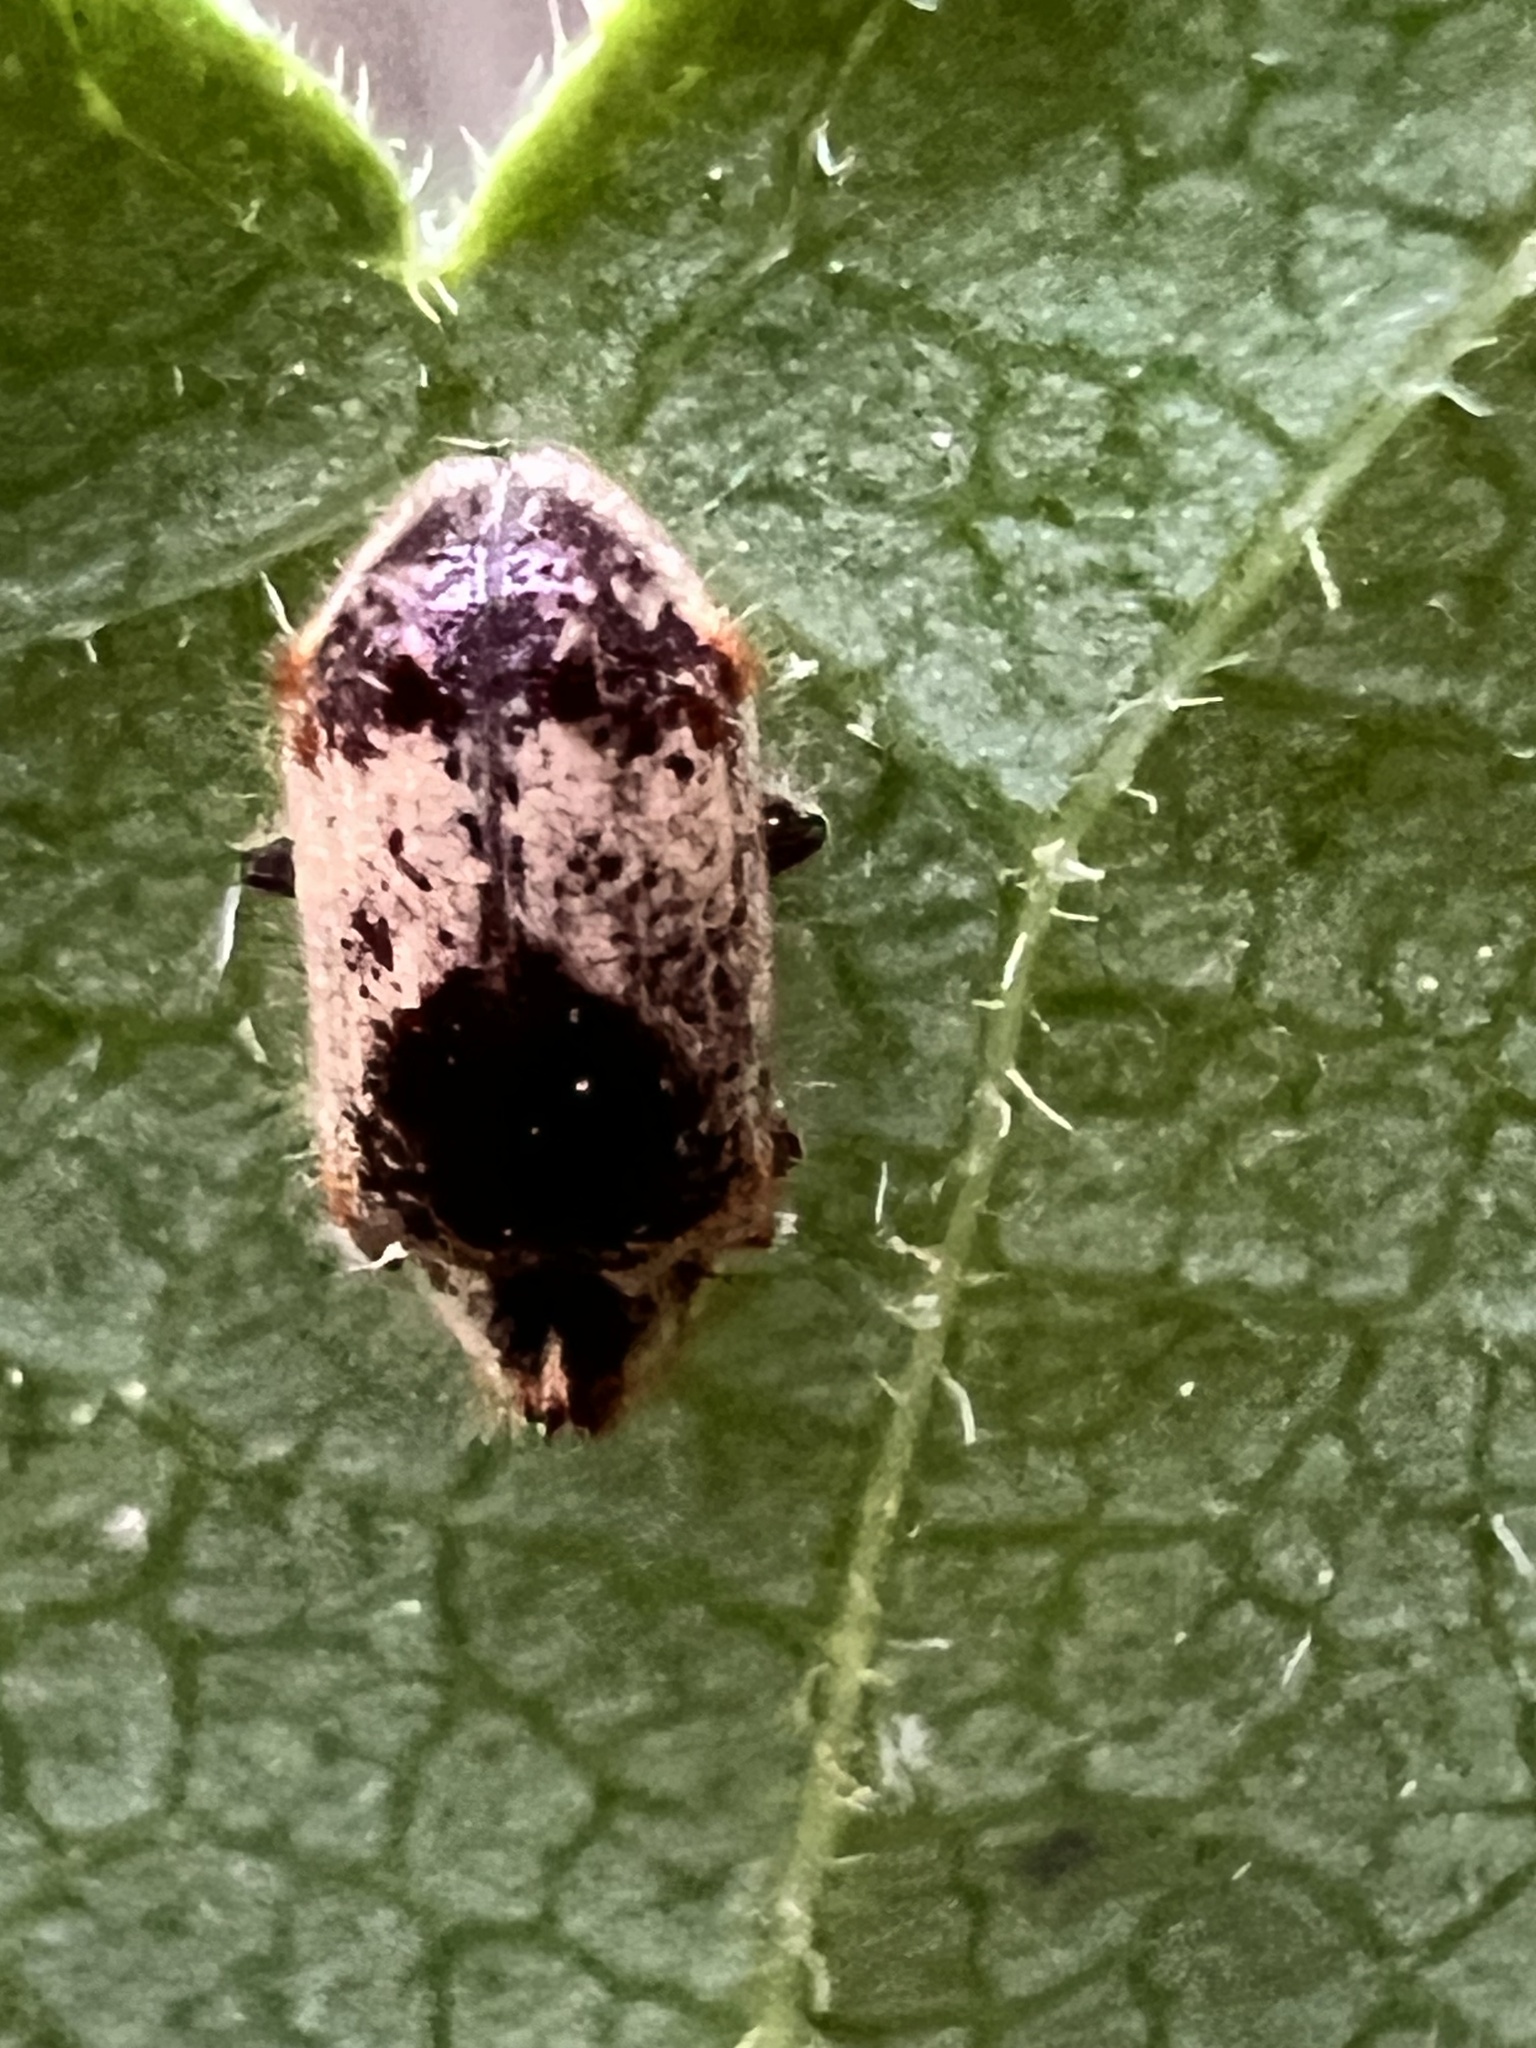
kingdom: Animalia
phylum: Arthropoda
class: Insecta
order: Coleoptera
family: Anobiidae
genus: Trichodesma
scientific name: Trichodesma gibbosa
